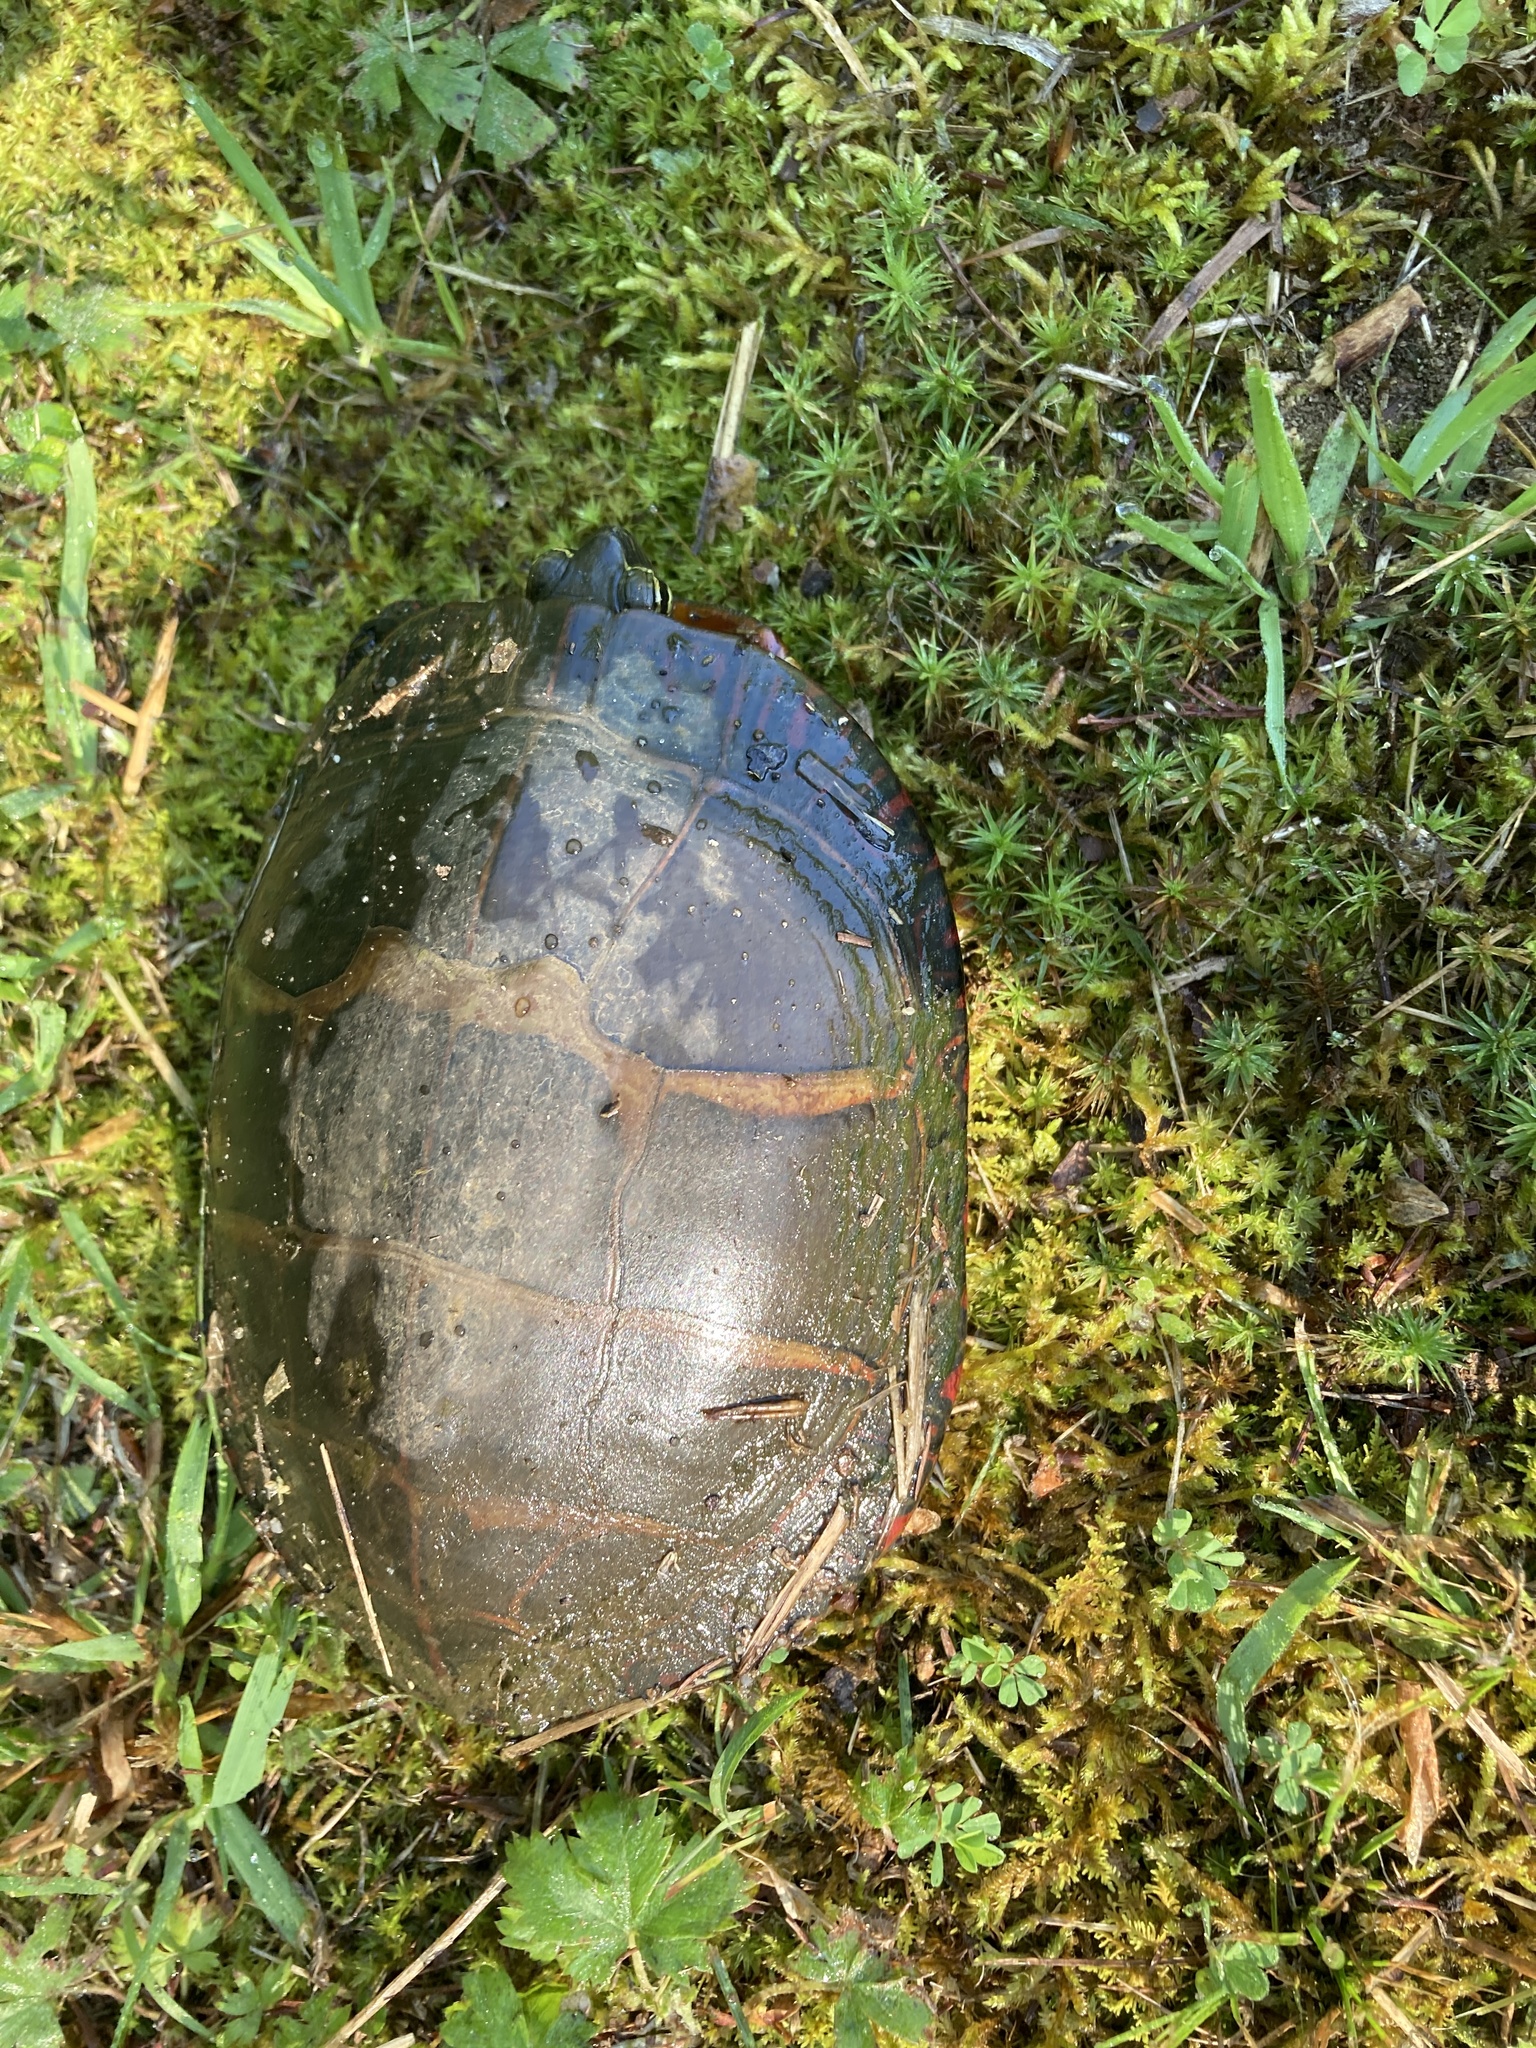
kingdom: Animalia
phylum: Chordata
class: Testudines
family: Emydidae
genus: Chrysemys
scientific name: Chrysemys picta
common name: Painted turtle
